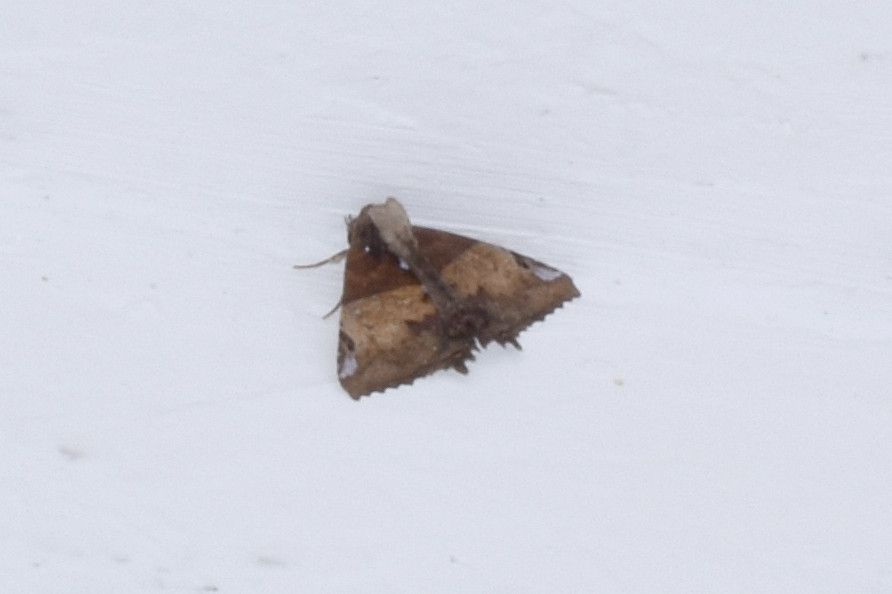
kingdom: Animalia
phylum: Arthropoda
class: Insecta
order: Lepidoptera
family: Erebidae
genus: Daddala
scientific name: Daddala brevicauda
